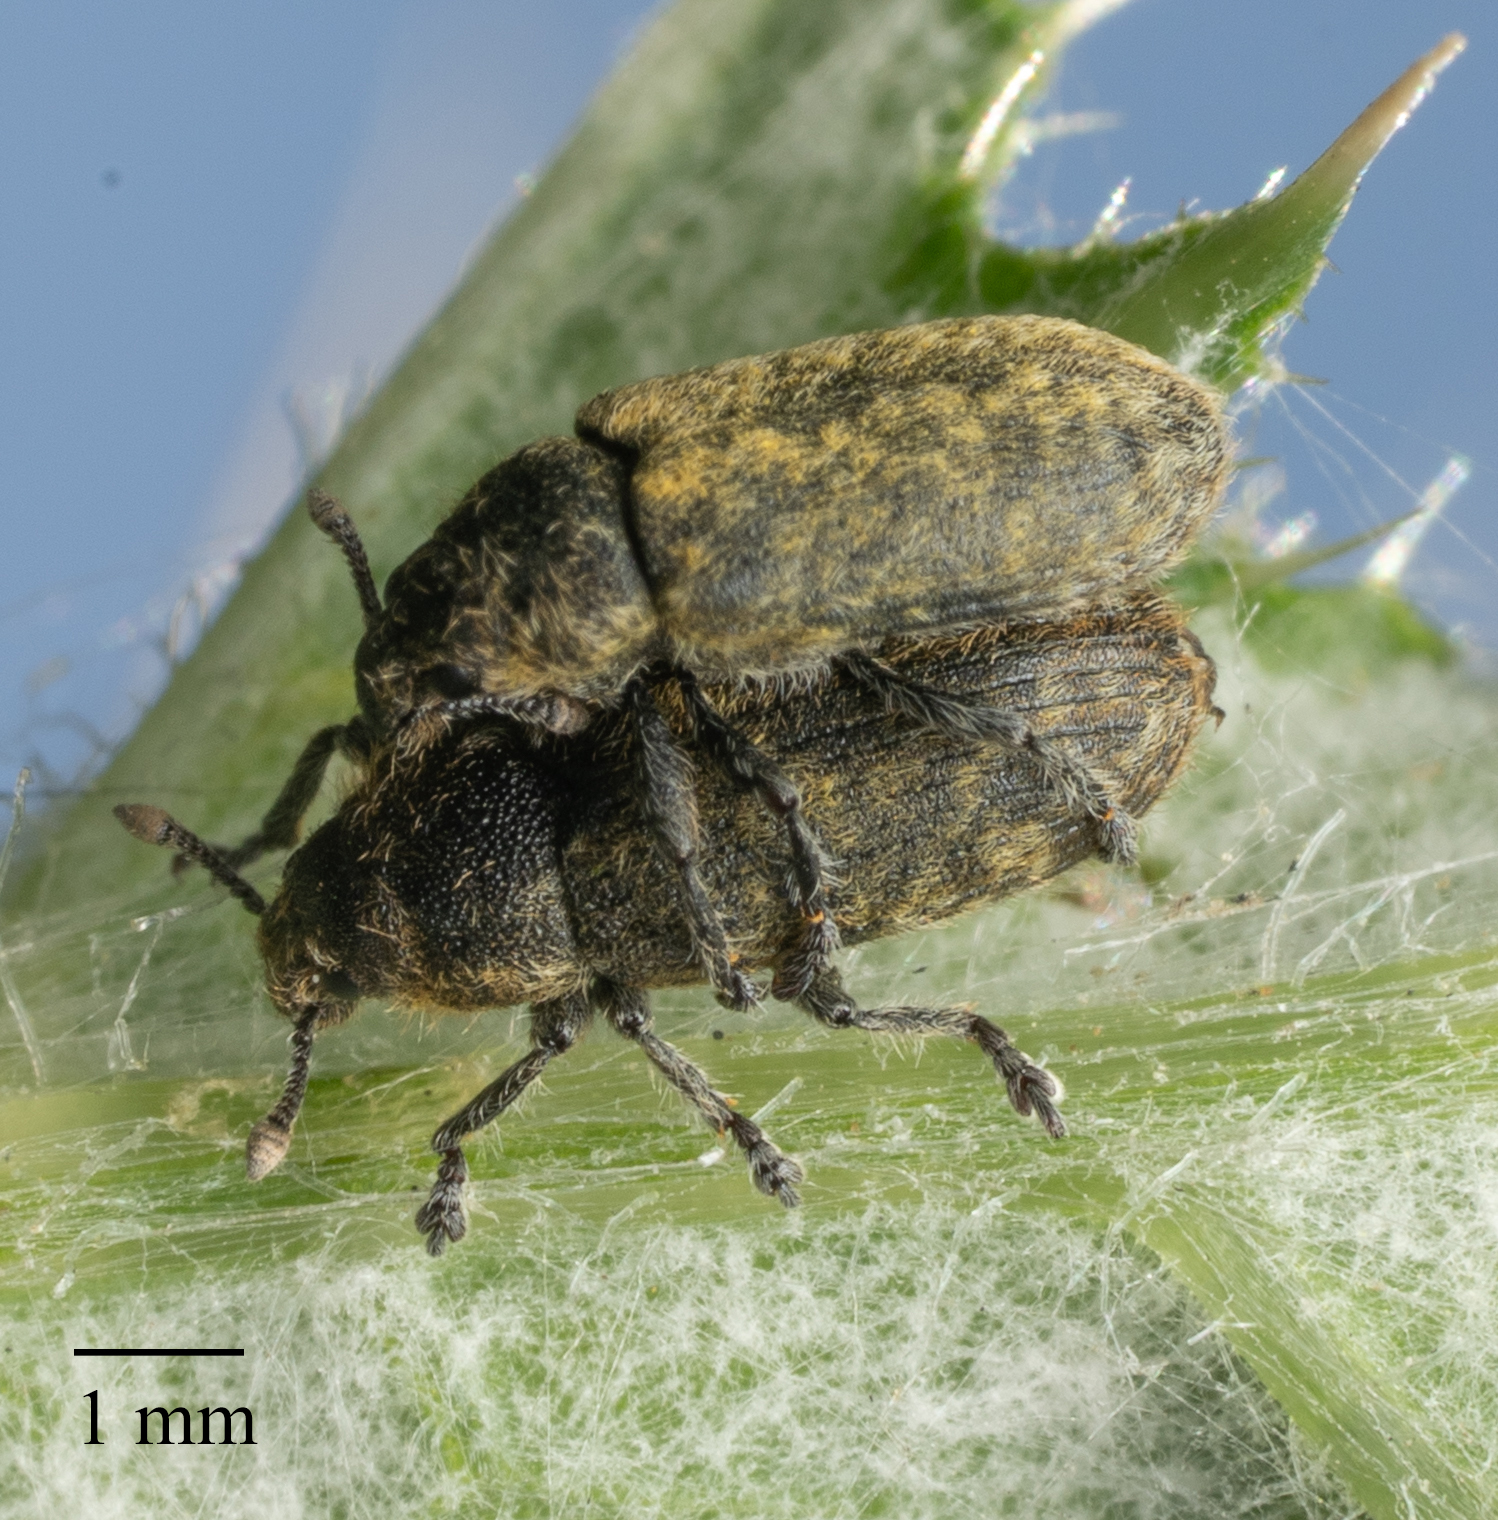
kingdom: Animalia
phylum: Arthropoda
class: Insecta
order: Coleoptera
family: Curculionidae
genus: Rhinocyllus
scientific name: Rhinocyllus conicus
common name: Weevil
